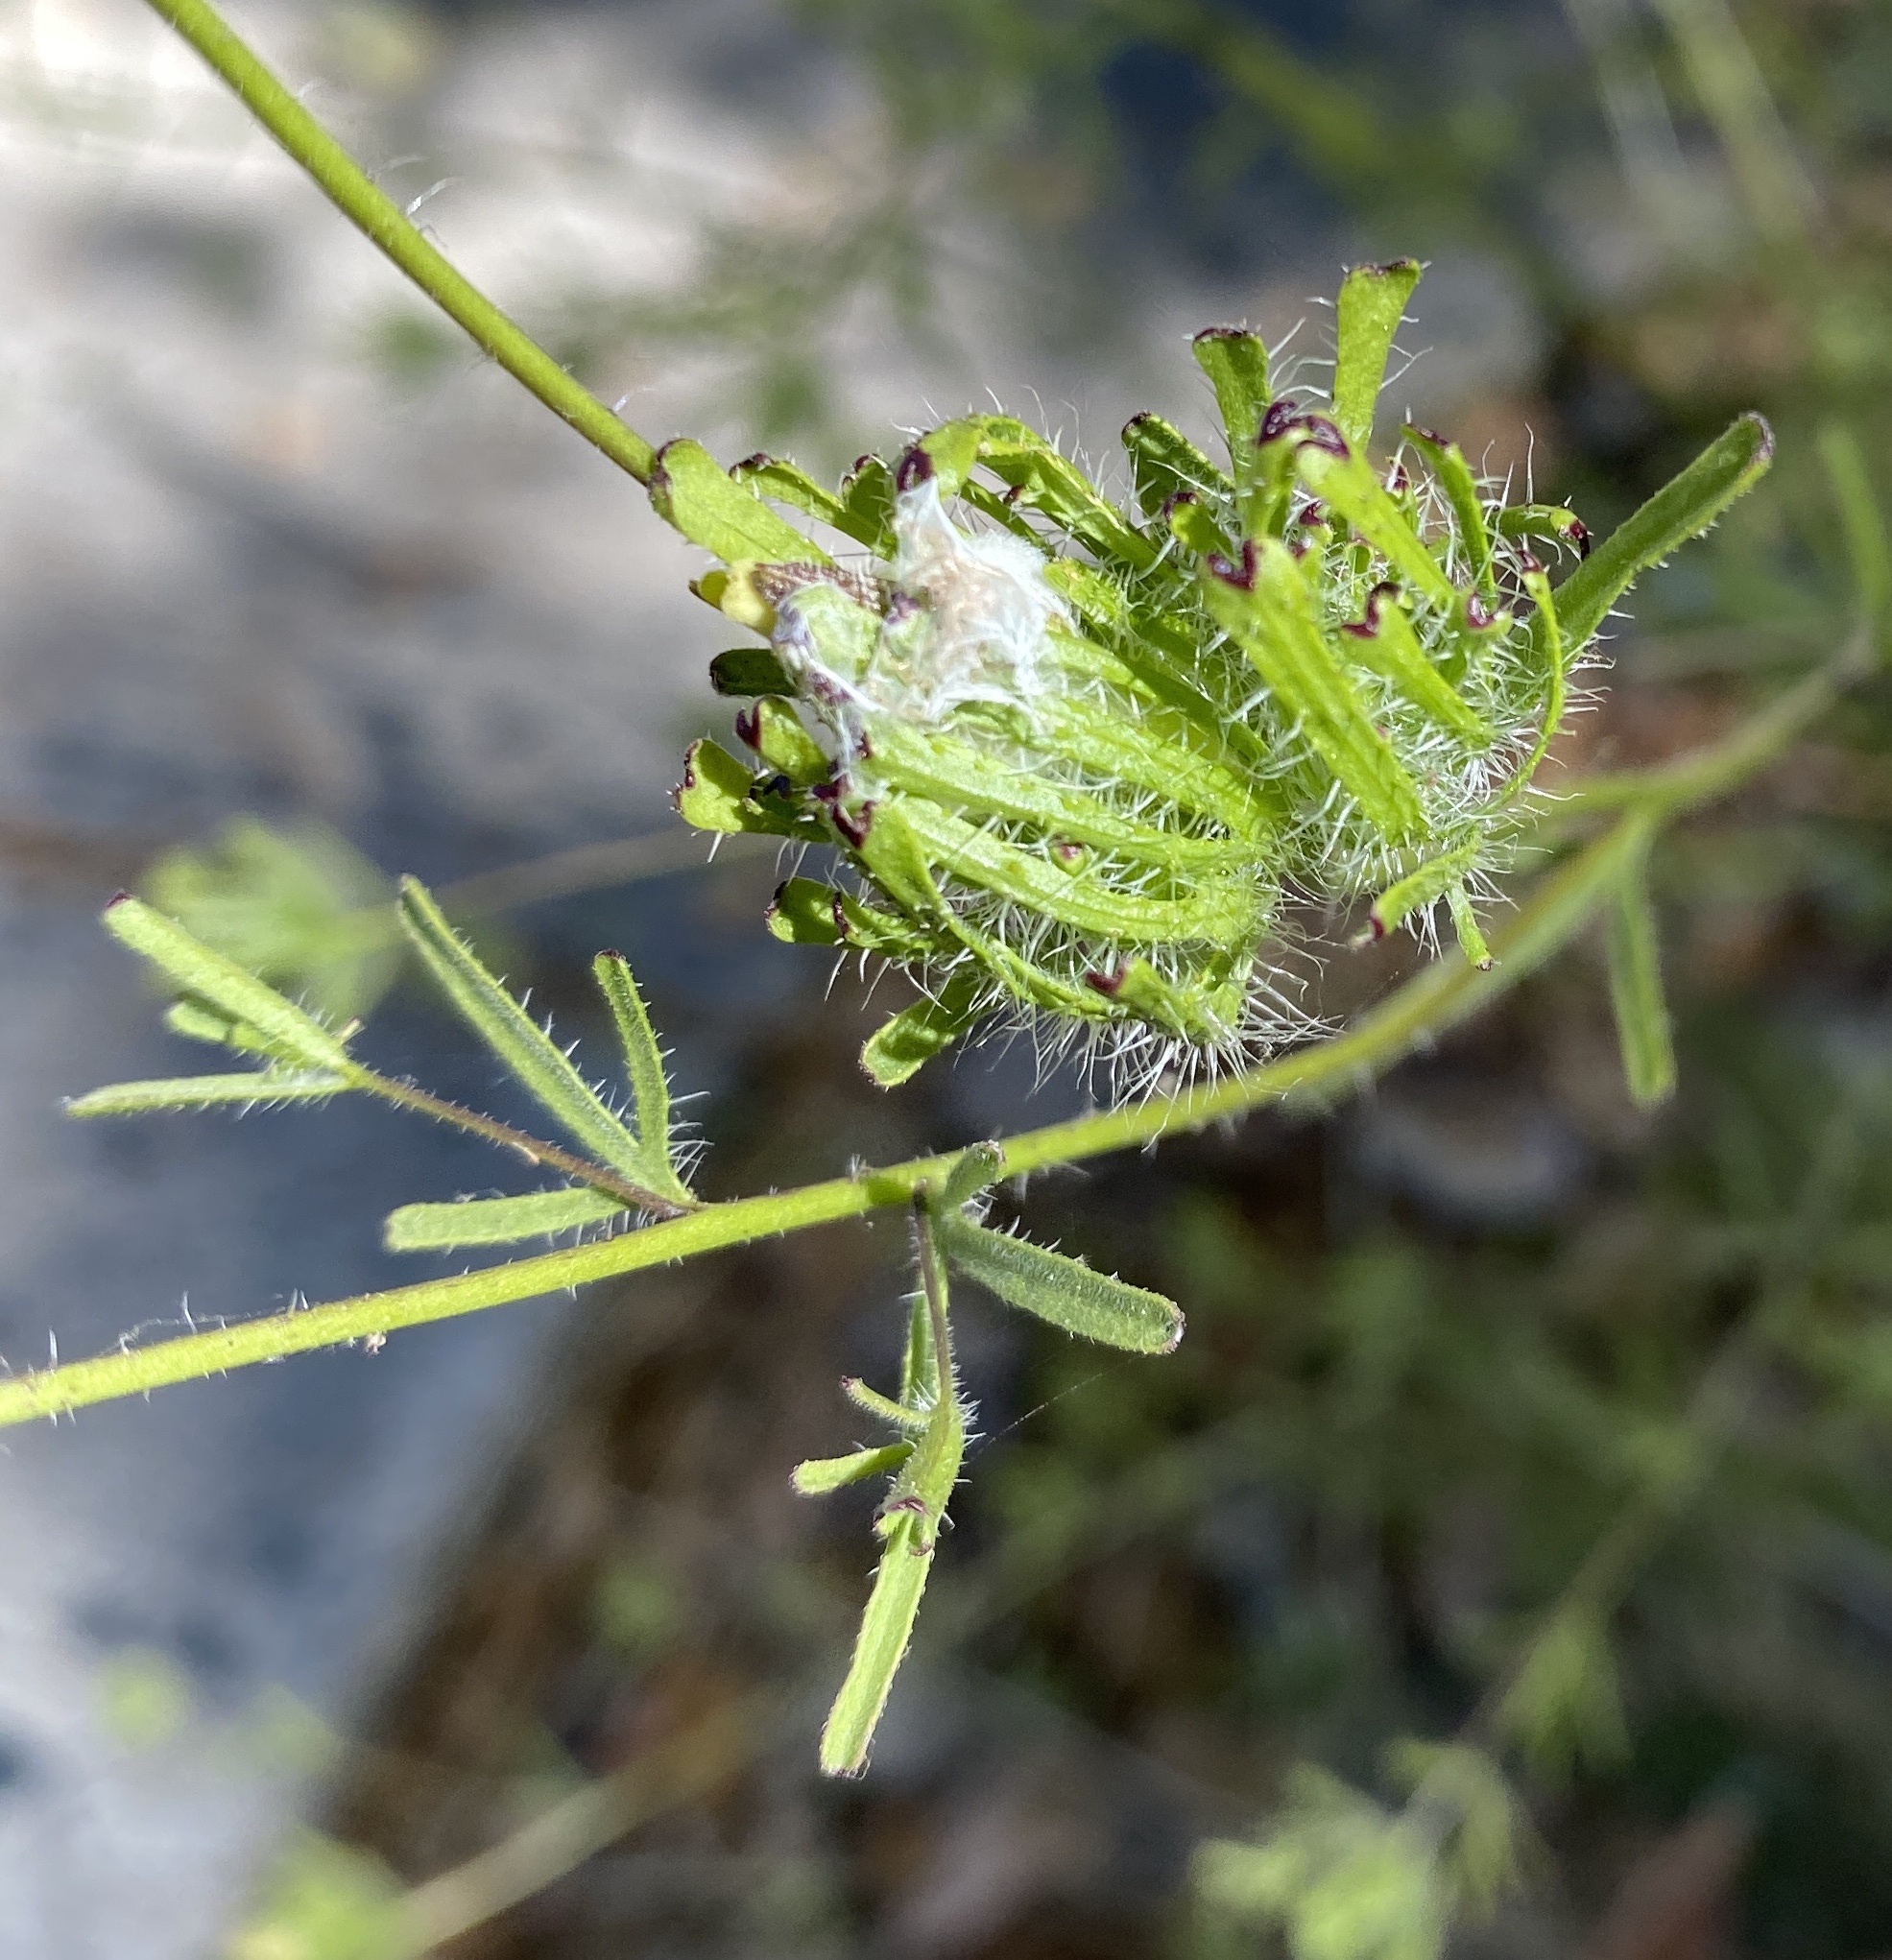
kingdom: Plantae
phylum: Tracheophyta
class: Magnoliopsida
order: Lamiales
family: Orobanchaceae
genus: Cordylanthus
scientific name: Cordylanthus rigidus
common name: Stiff-branch bird's-beak
